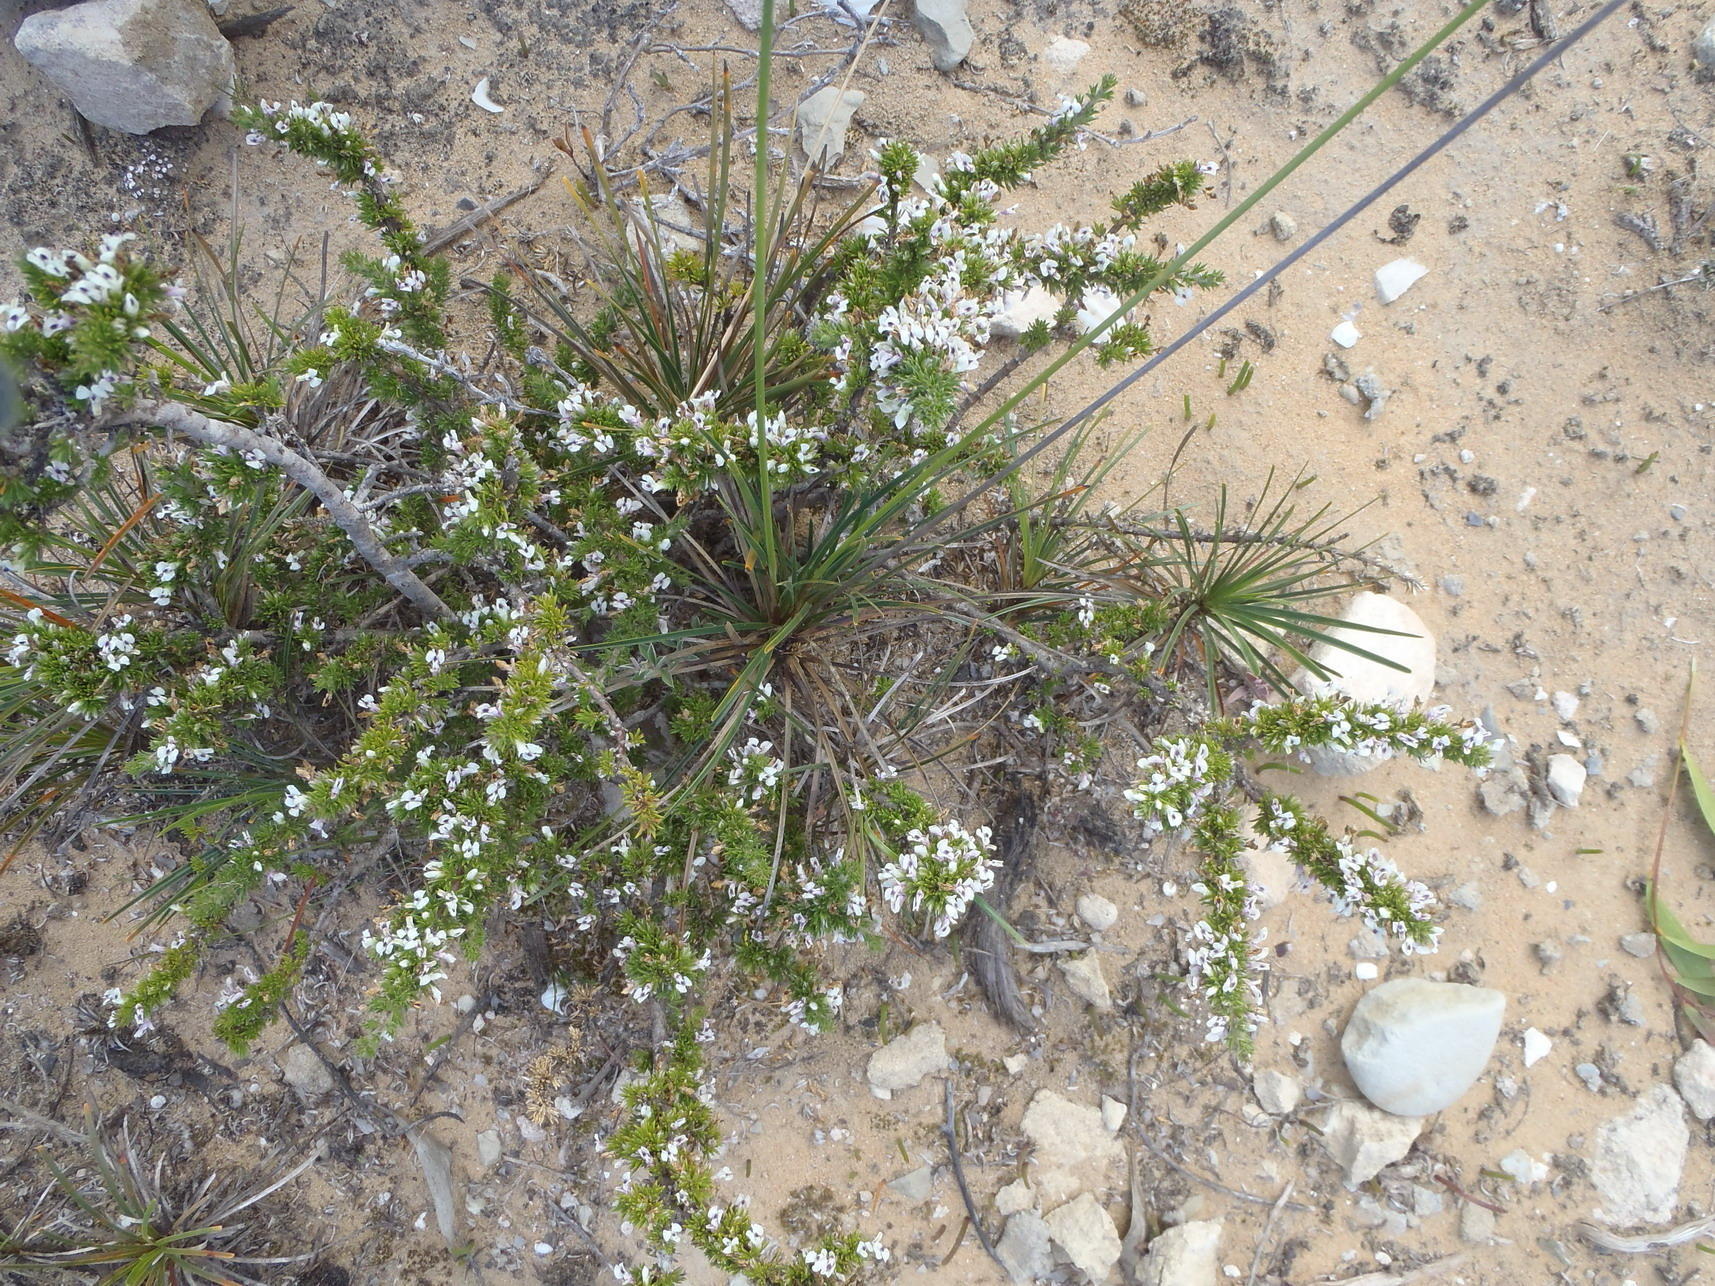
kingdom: Plantae
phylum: Tracheophyta
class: Liliopsida
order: Poales
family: Cyperaceae
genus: Ficinia
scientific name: Ficinia praemorsa
